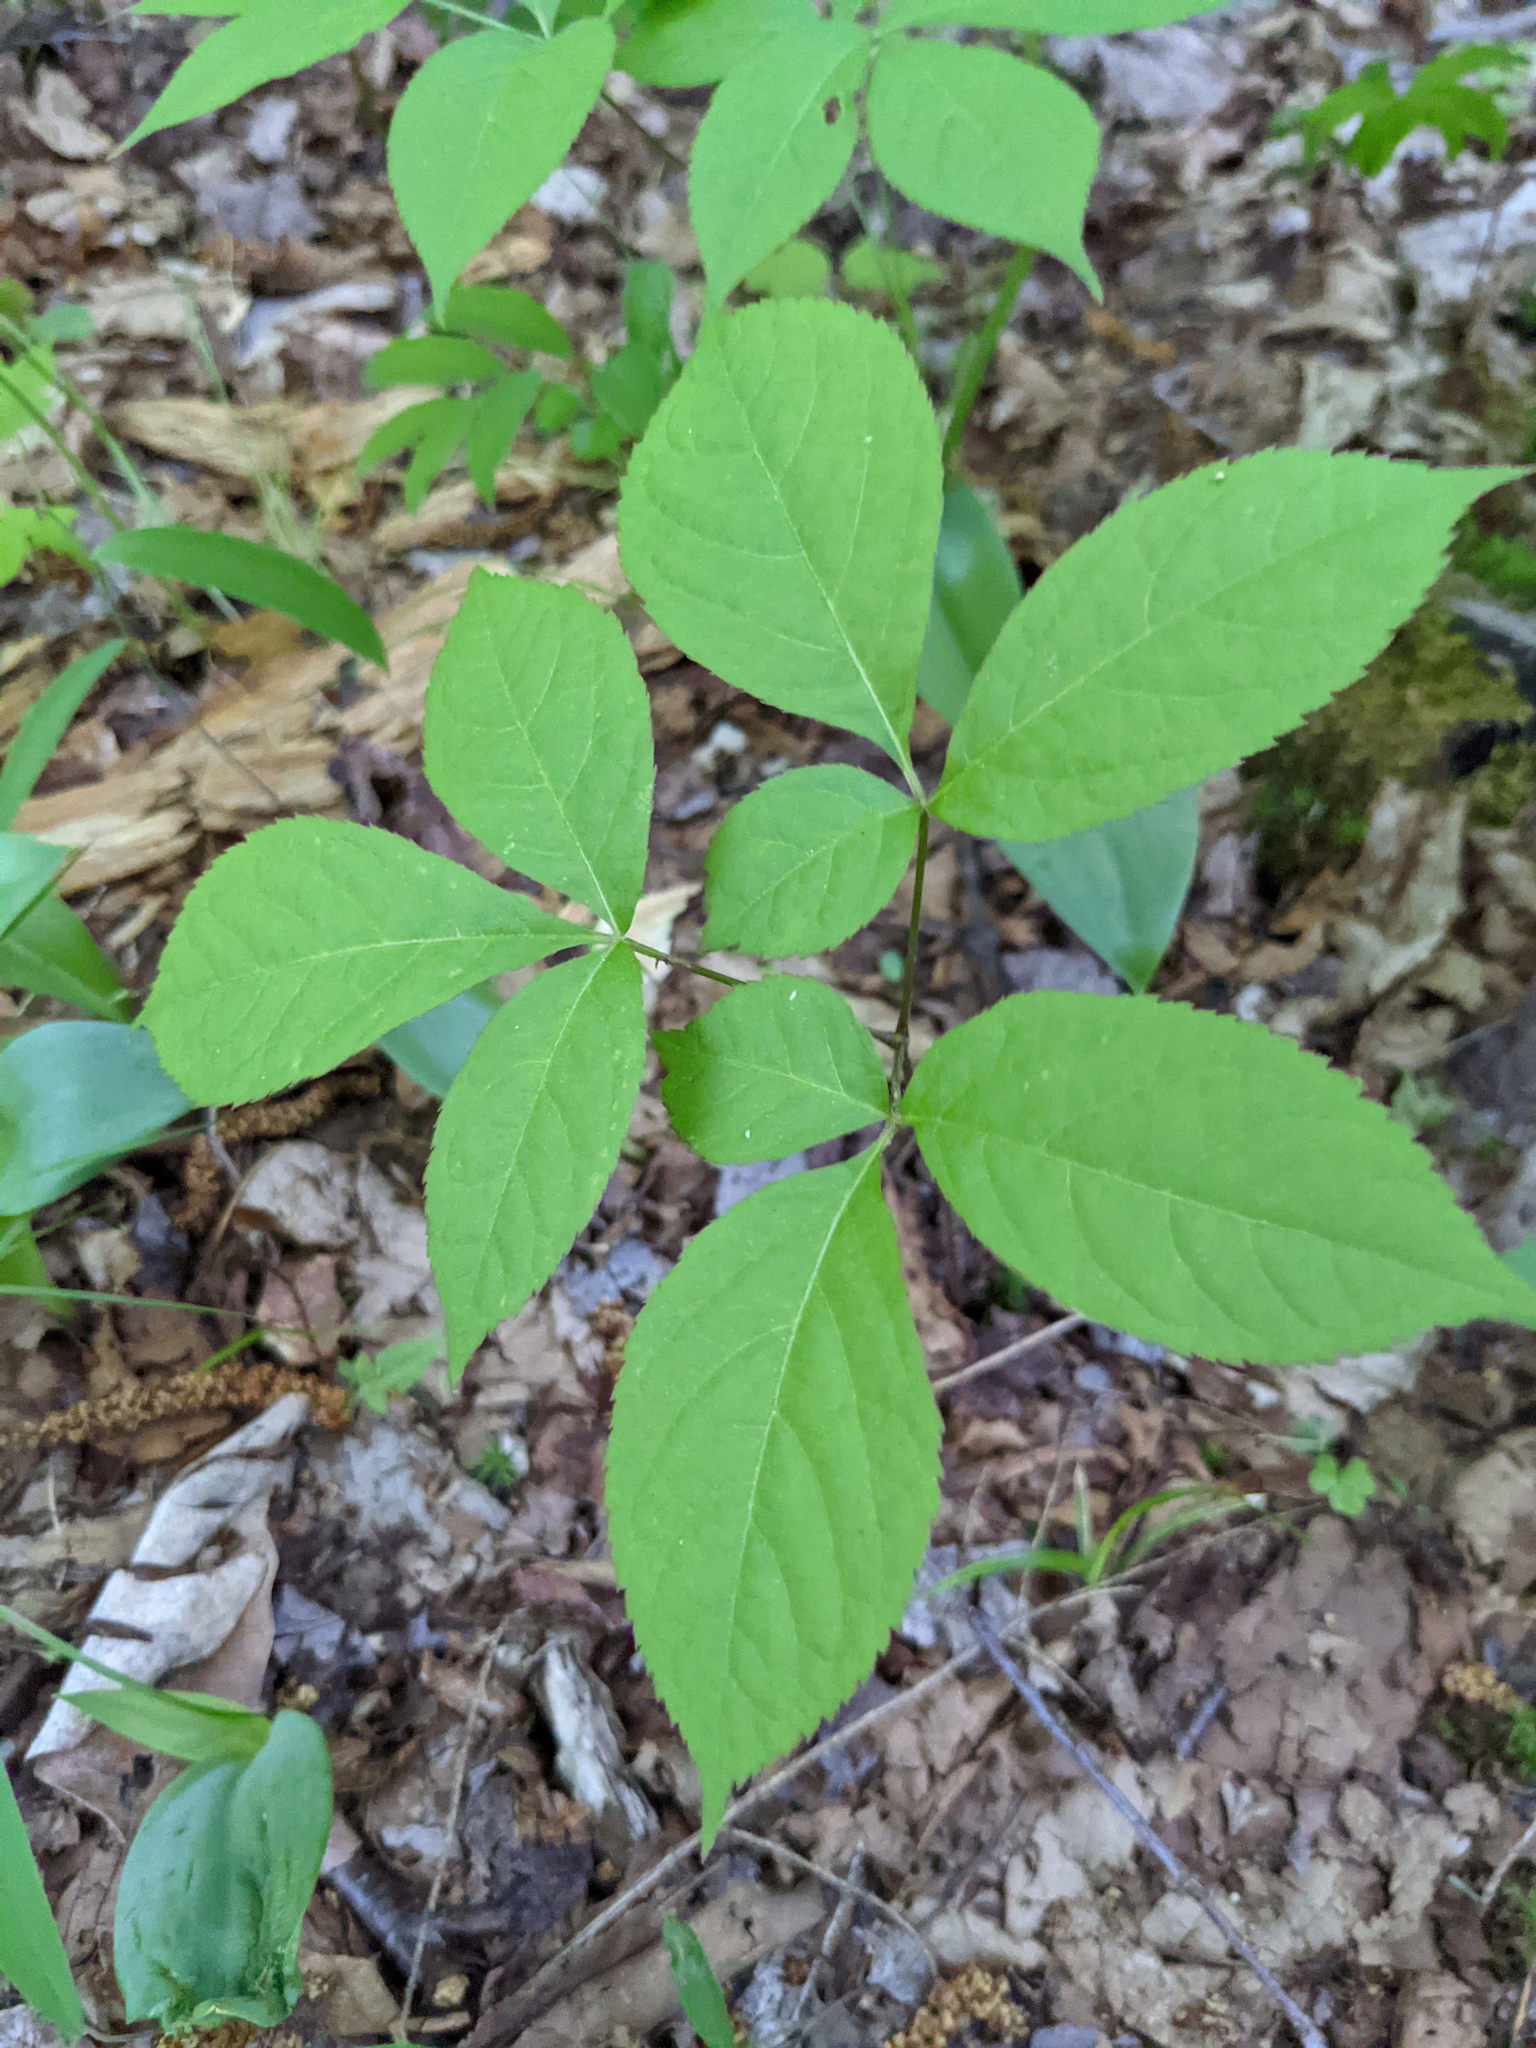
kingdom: Plantae
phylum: Tracheophyta
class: Magnoliopsida
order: Apiales
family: Araliaceae
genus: Aralia
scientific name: Aralia nudicaulis
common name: Wild sarsaparilla
